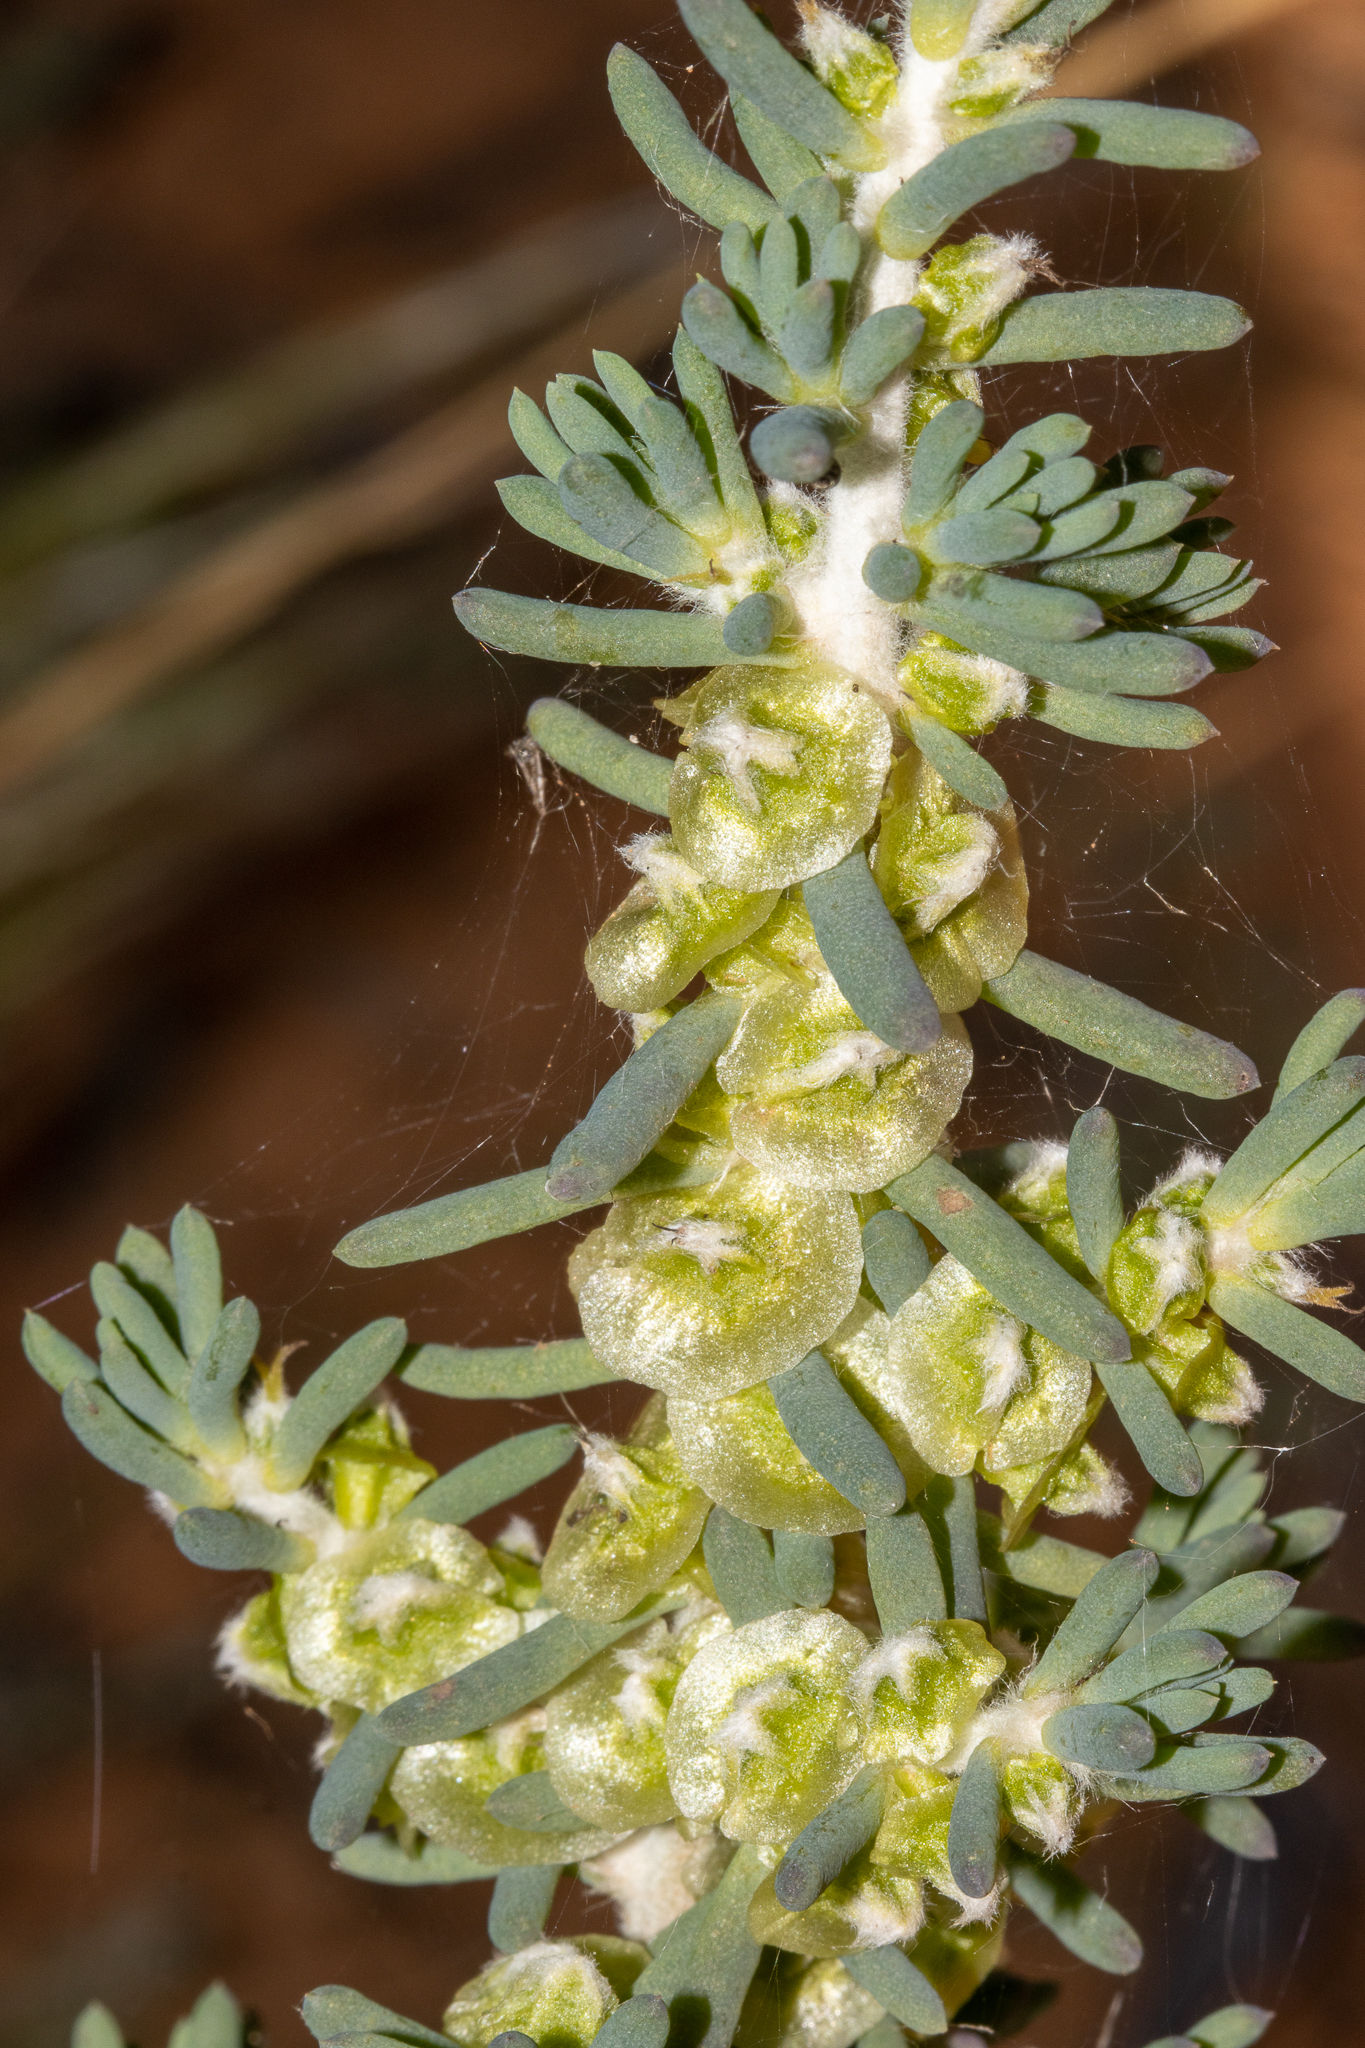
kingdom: Plantae
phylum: Tracheophyta
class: Magnoliopsida
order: Caryophyllales
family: Amaranthaceae
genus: Maireana
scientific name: Maireana pentatropis
